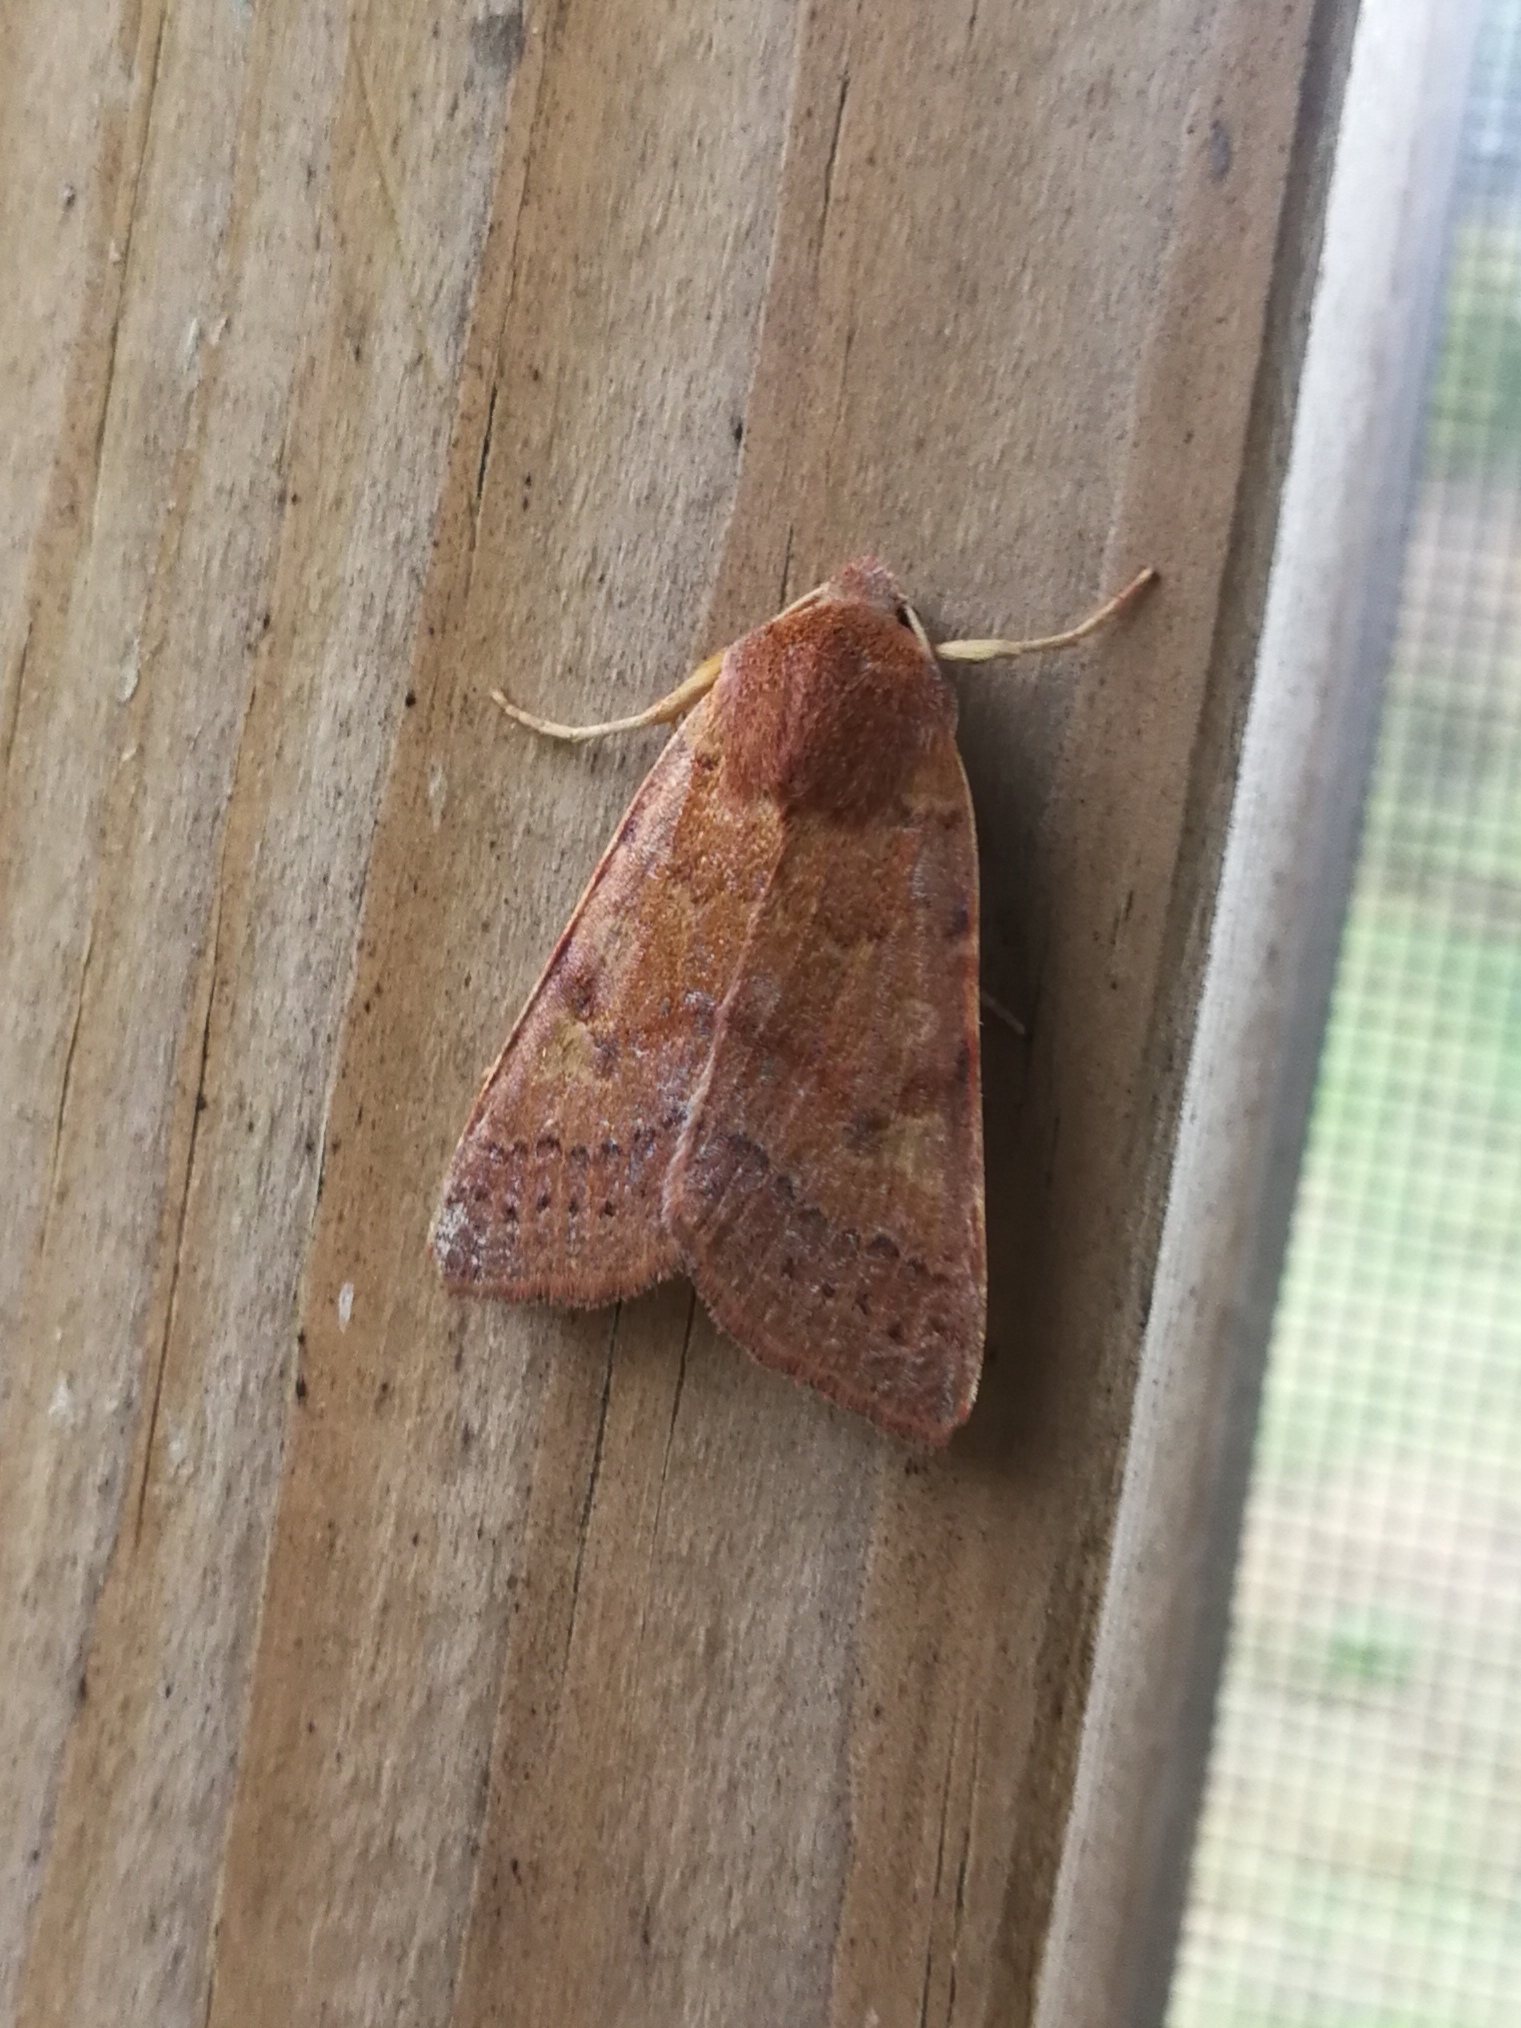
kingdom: Animalia
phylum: Arthropoda
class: Insecta
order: Lepidoptera
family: Noctuidae
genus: Agrochola
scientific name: Agrochola helvola
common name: Flounced chestnut
